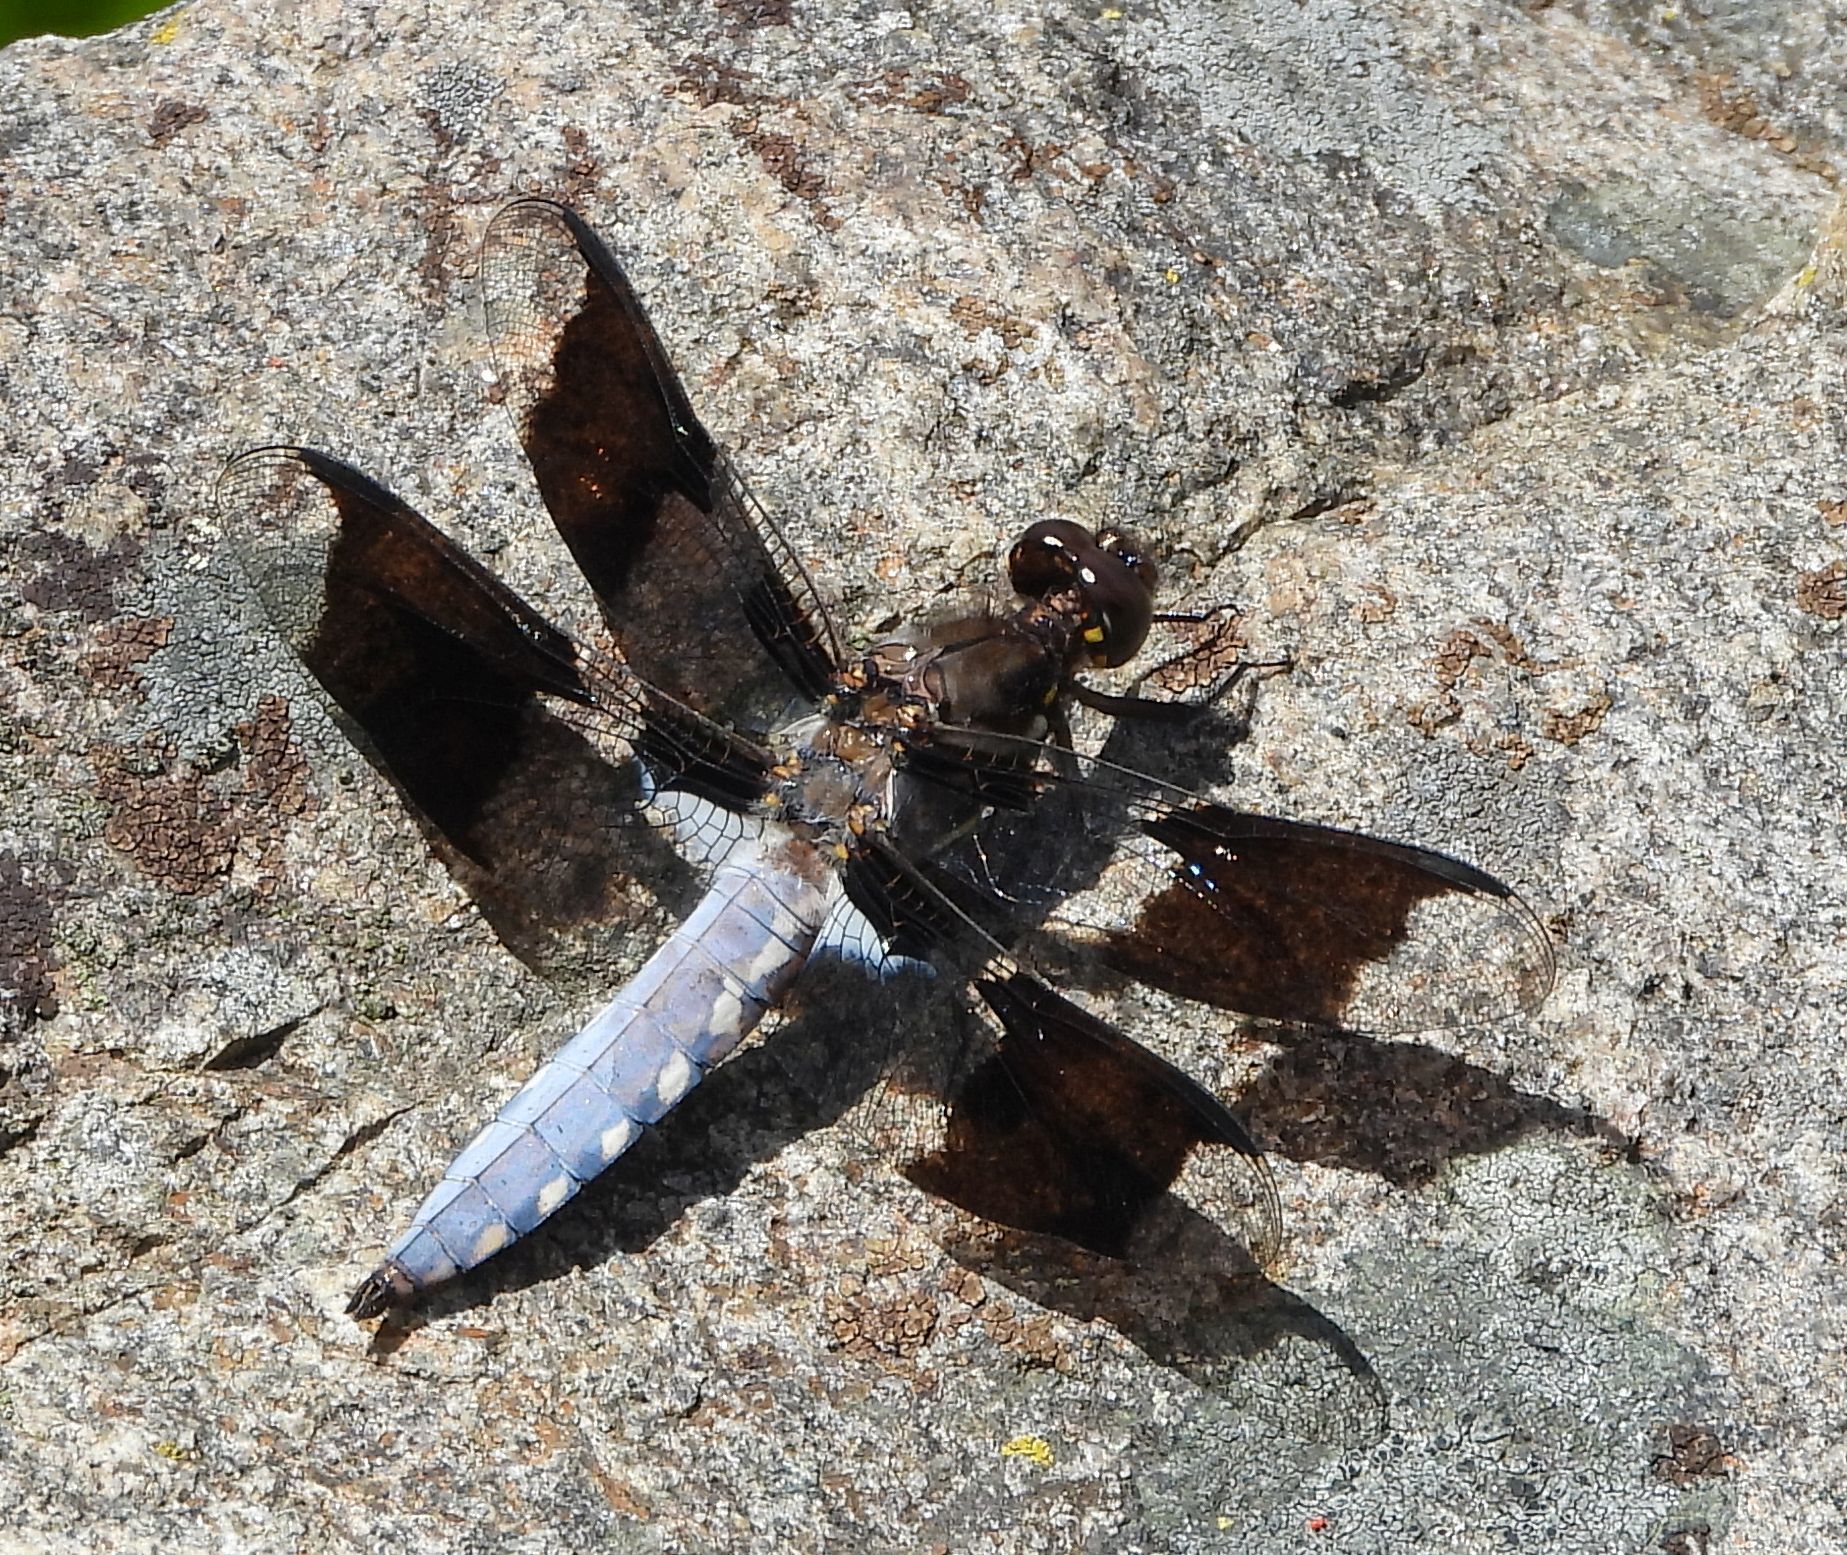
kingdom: Animalia
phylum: Arthropoda
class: Insecta
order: Odonata
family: Libellulidae
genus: Plathemis
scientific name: Plathemis lydia
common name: Common whitetail
